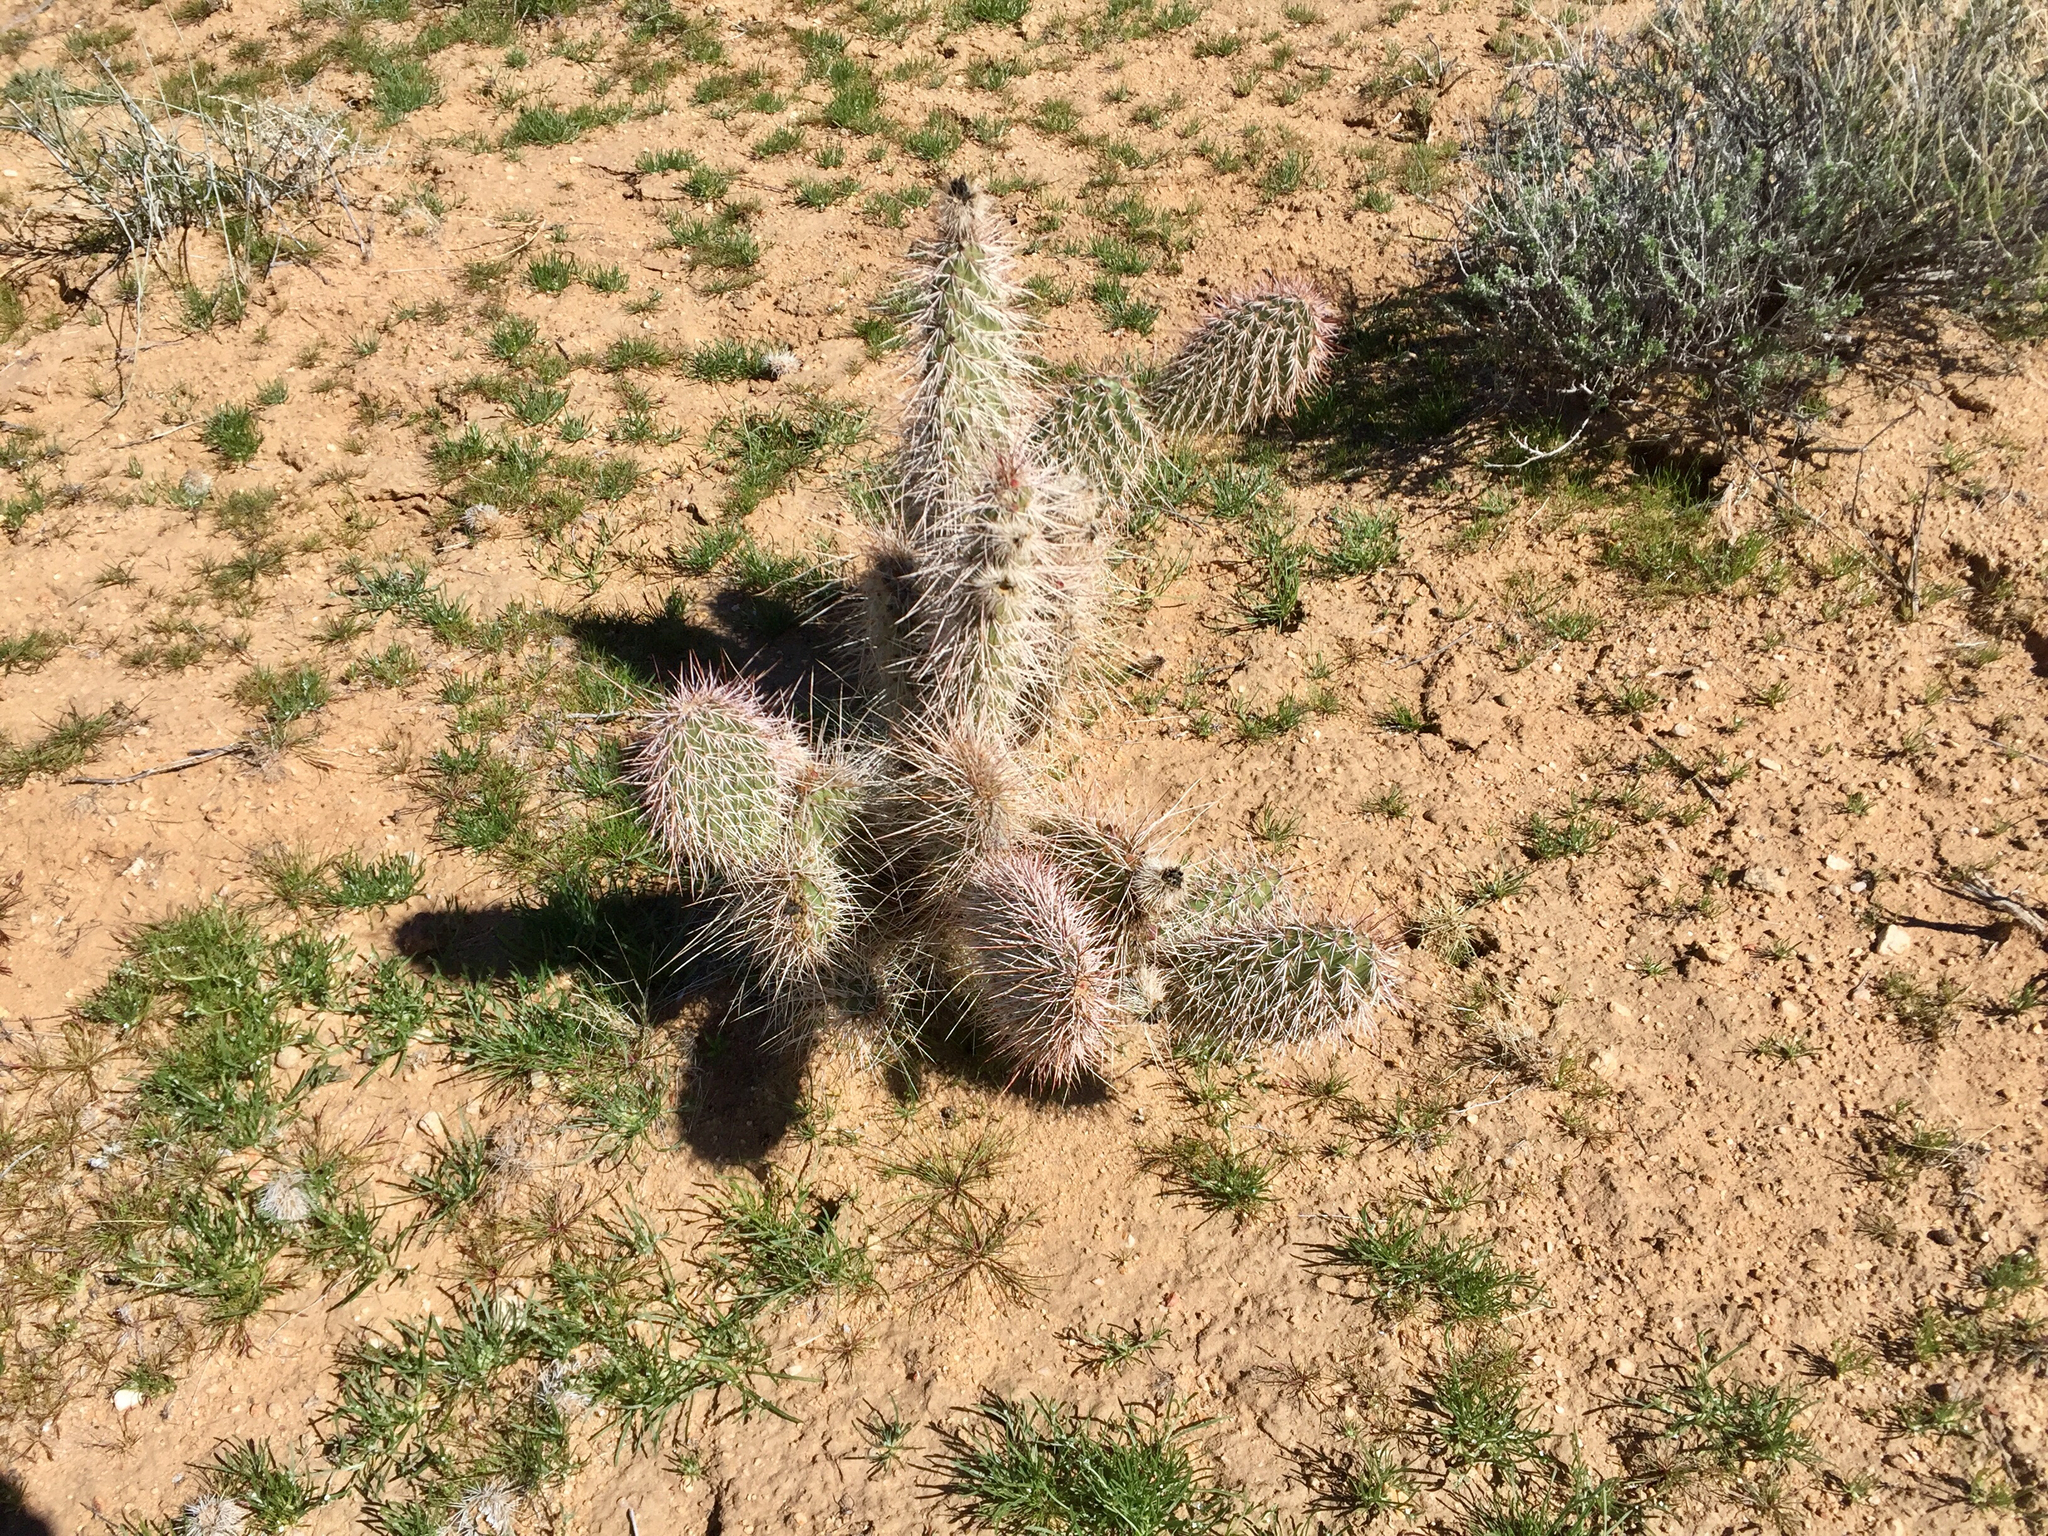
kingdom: Plantae
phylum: Tracheophyta
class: Magnoliopsida
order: Caryophyllales
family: Cactaceae
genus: Opuntia
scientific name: Opuntia polyacantha
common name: Plains prickly-pear
